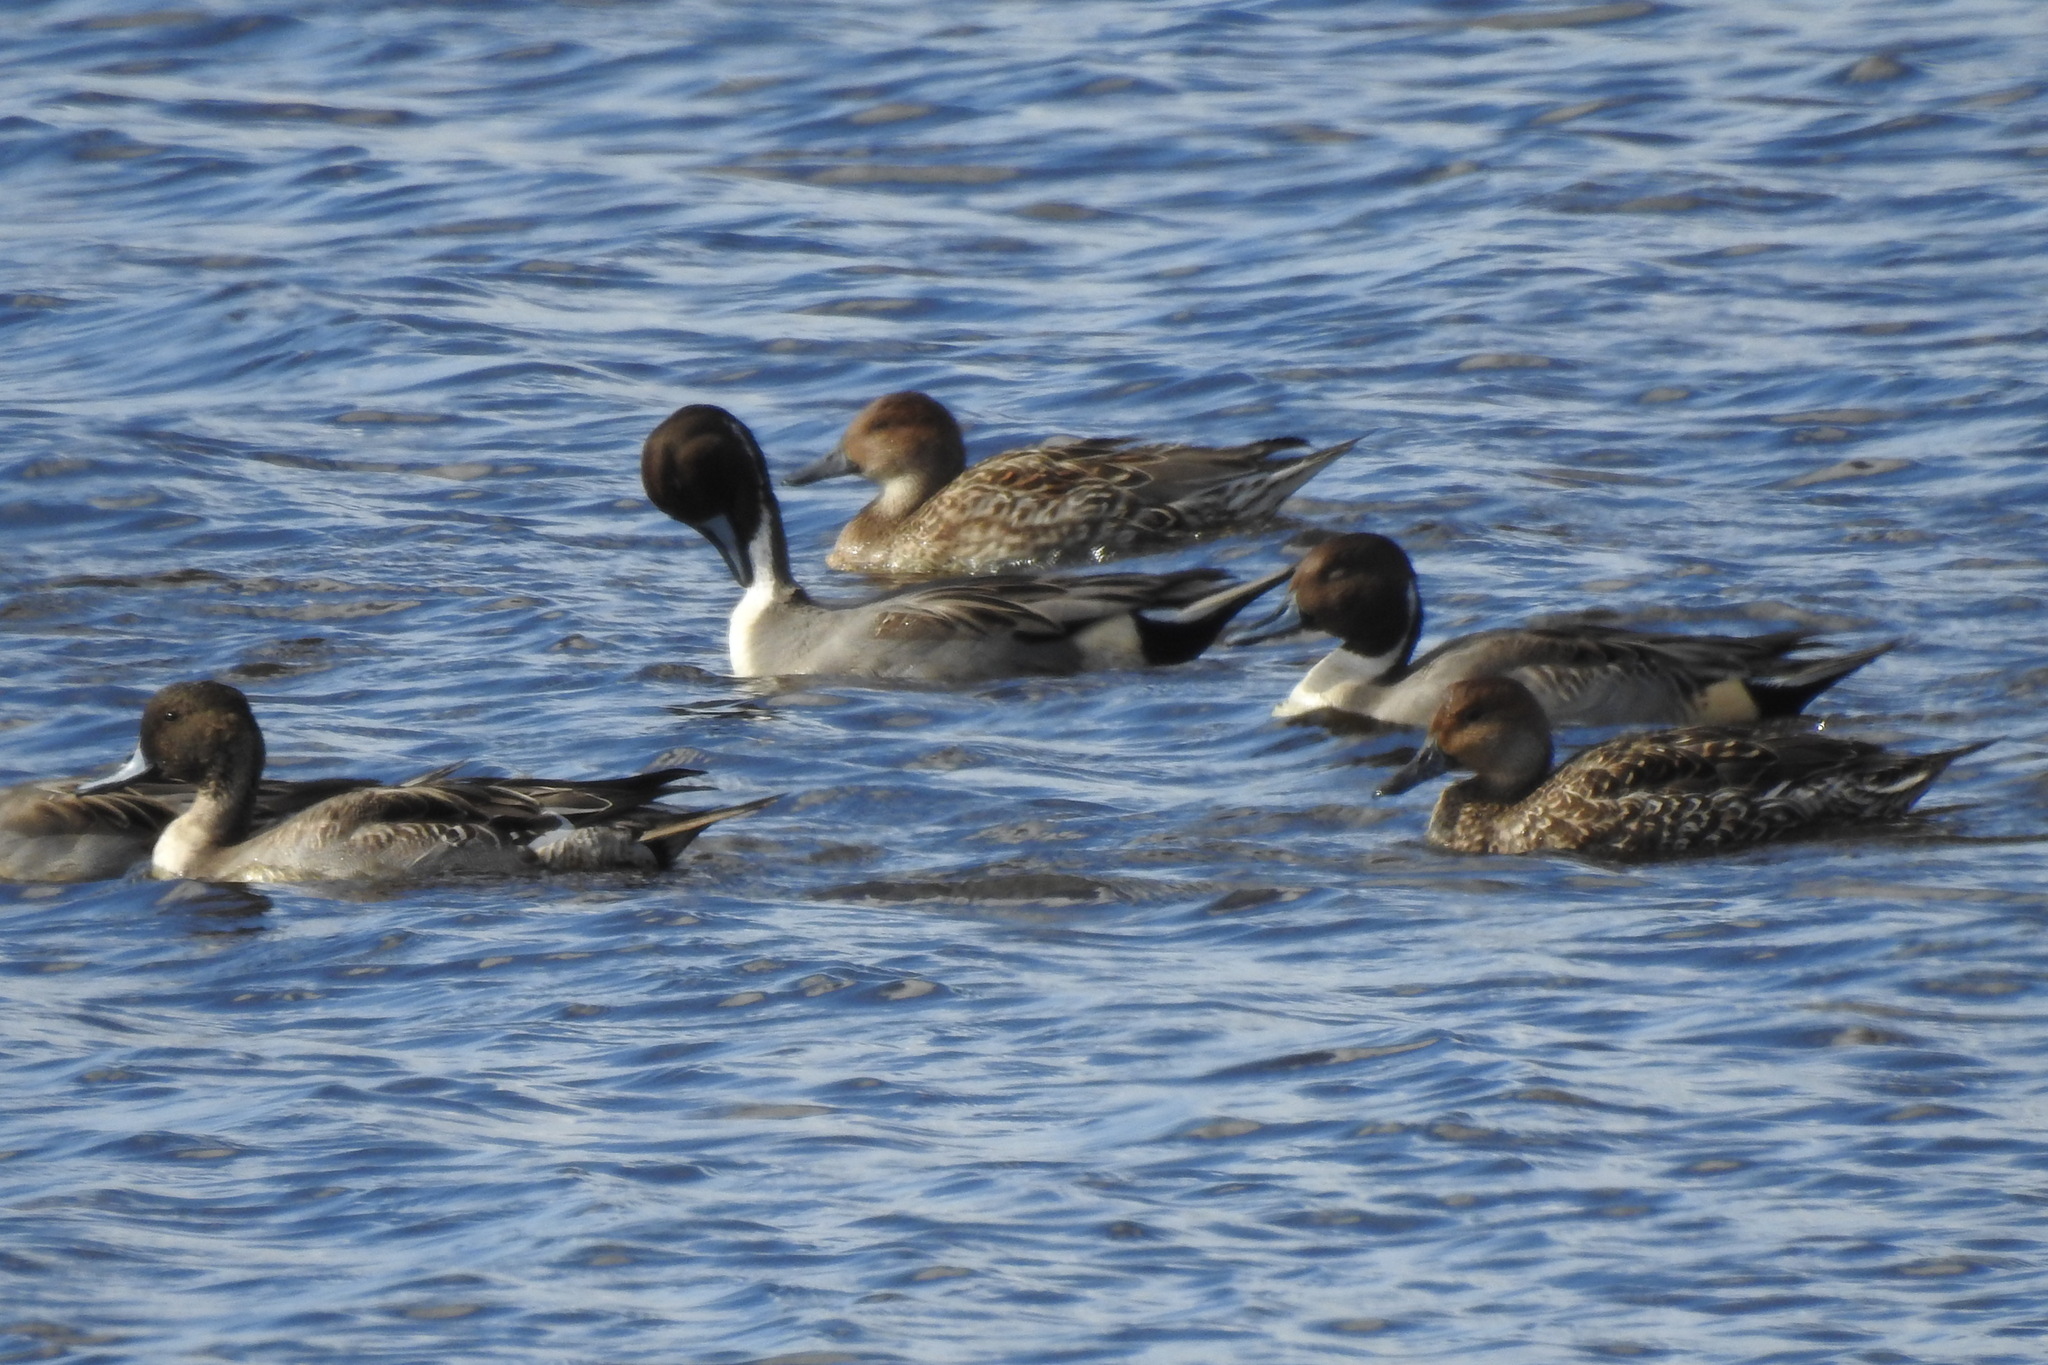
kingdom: Animalia
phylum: Chordata
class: Aves
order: Anseriformes
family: Anatidae
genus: Anas
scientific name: Anas acuta
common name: Northern pintail
